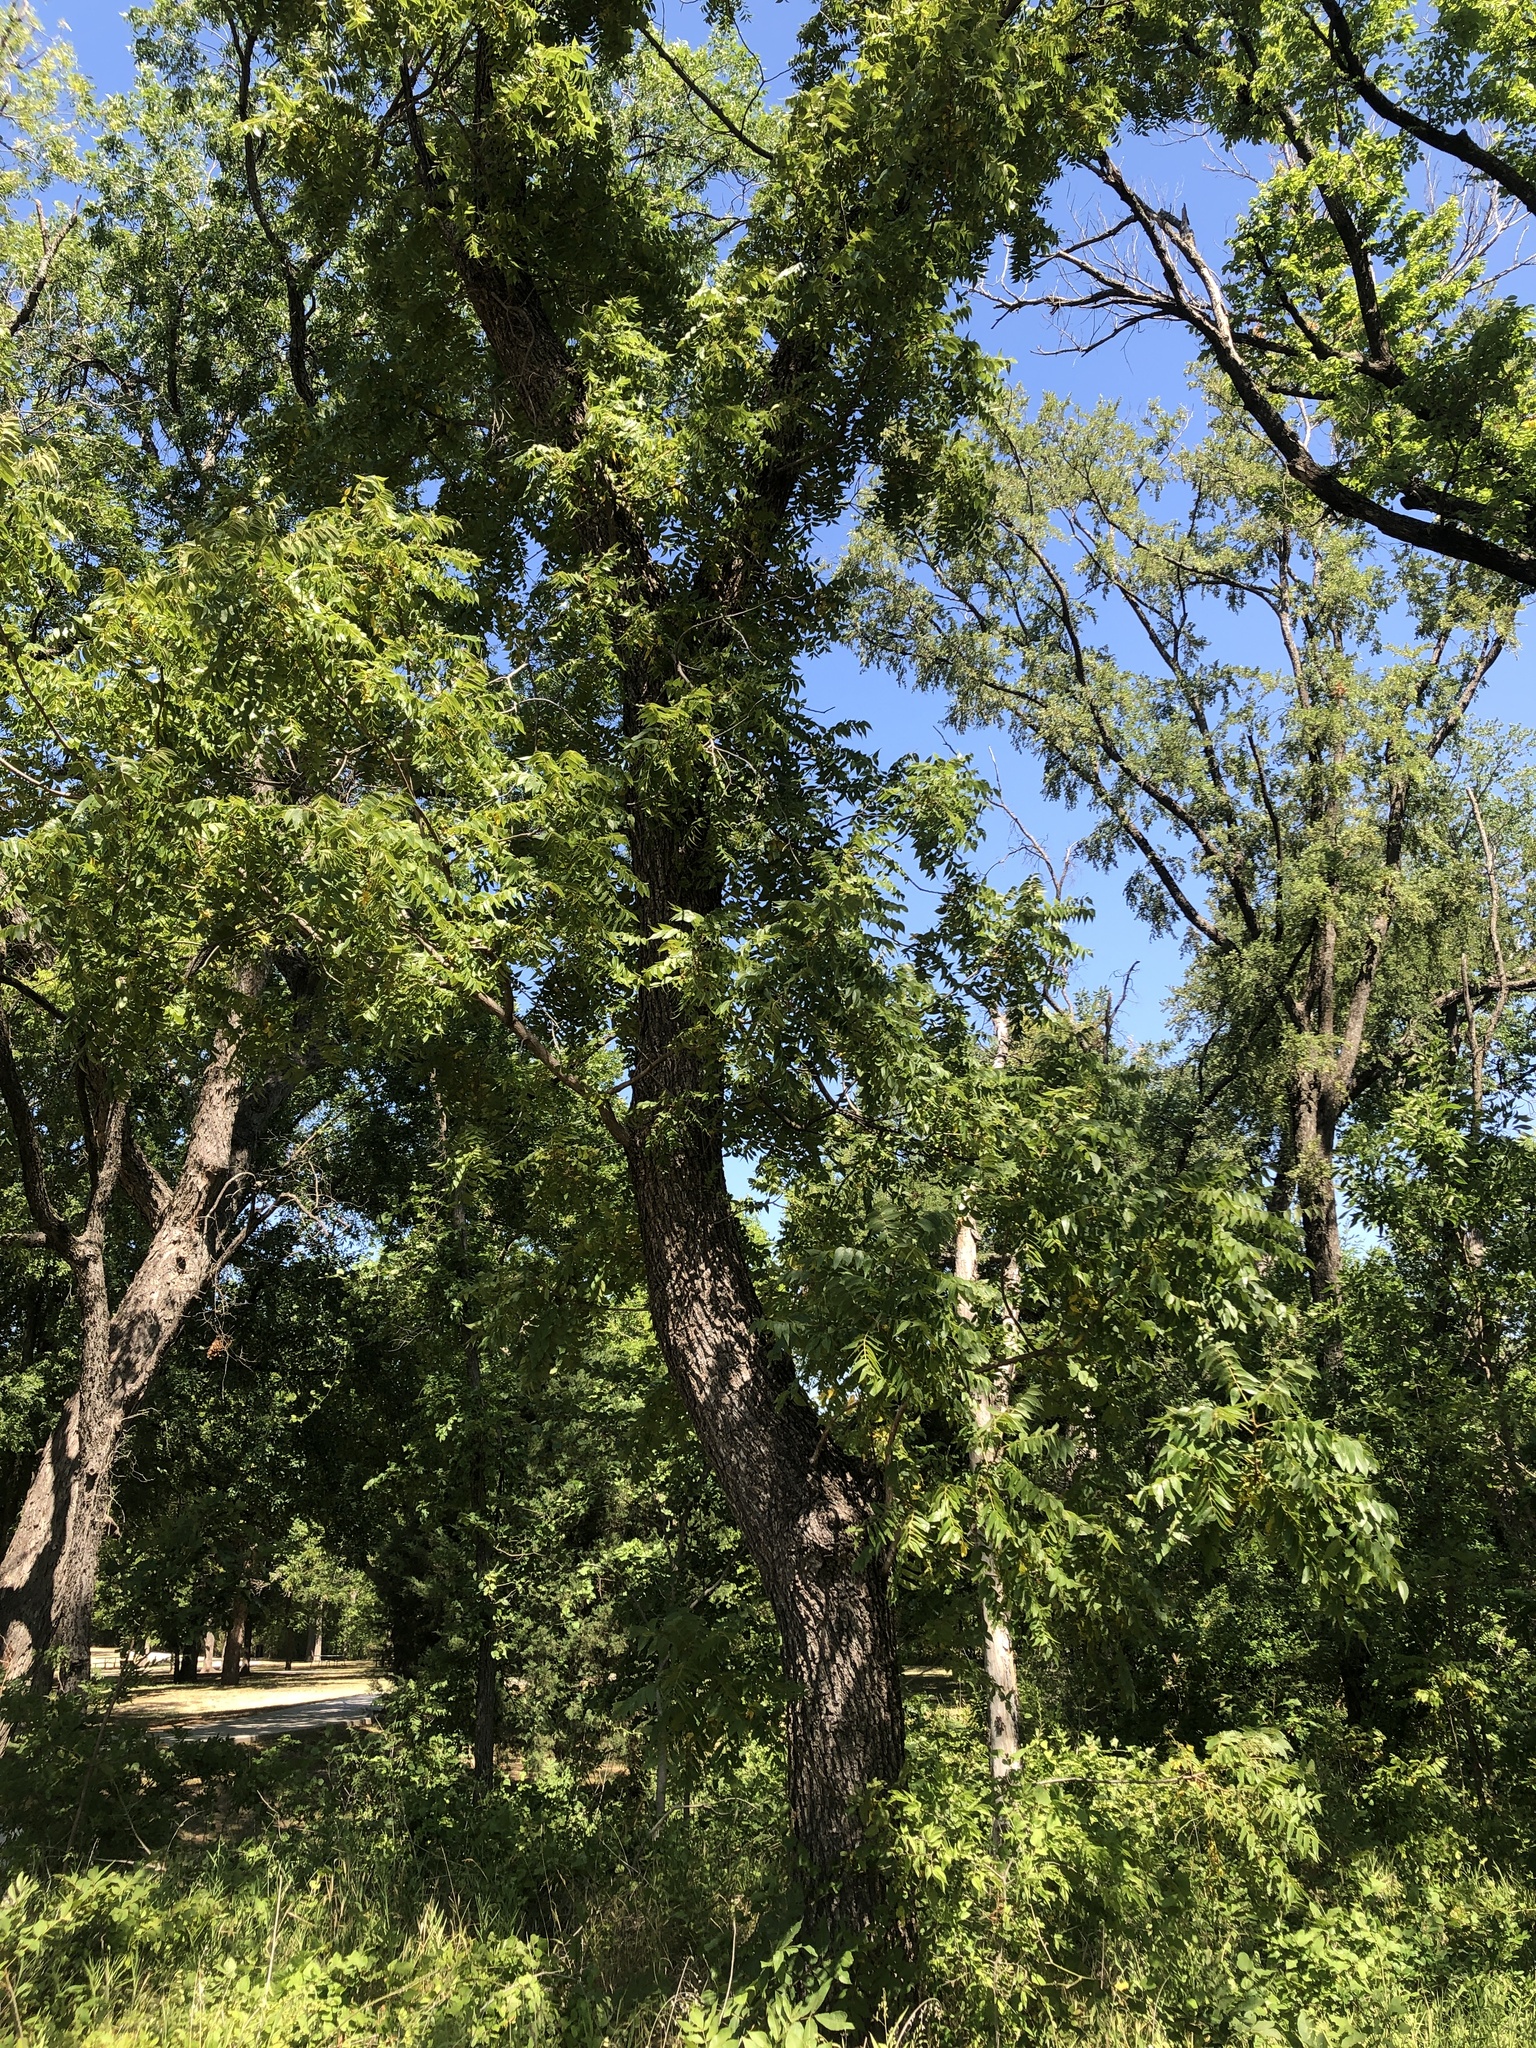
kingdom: Plantae
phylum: Tracheophyta
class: Magnoliopsida
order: Fagales
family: Juglandaceae
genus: Juglans
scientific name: Juglans nigra
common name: Black walnut
